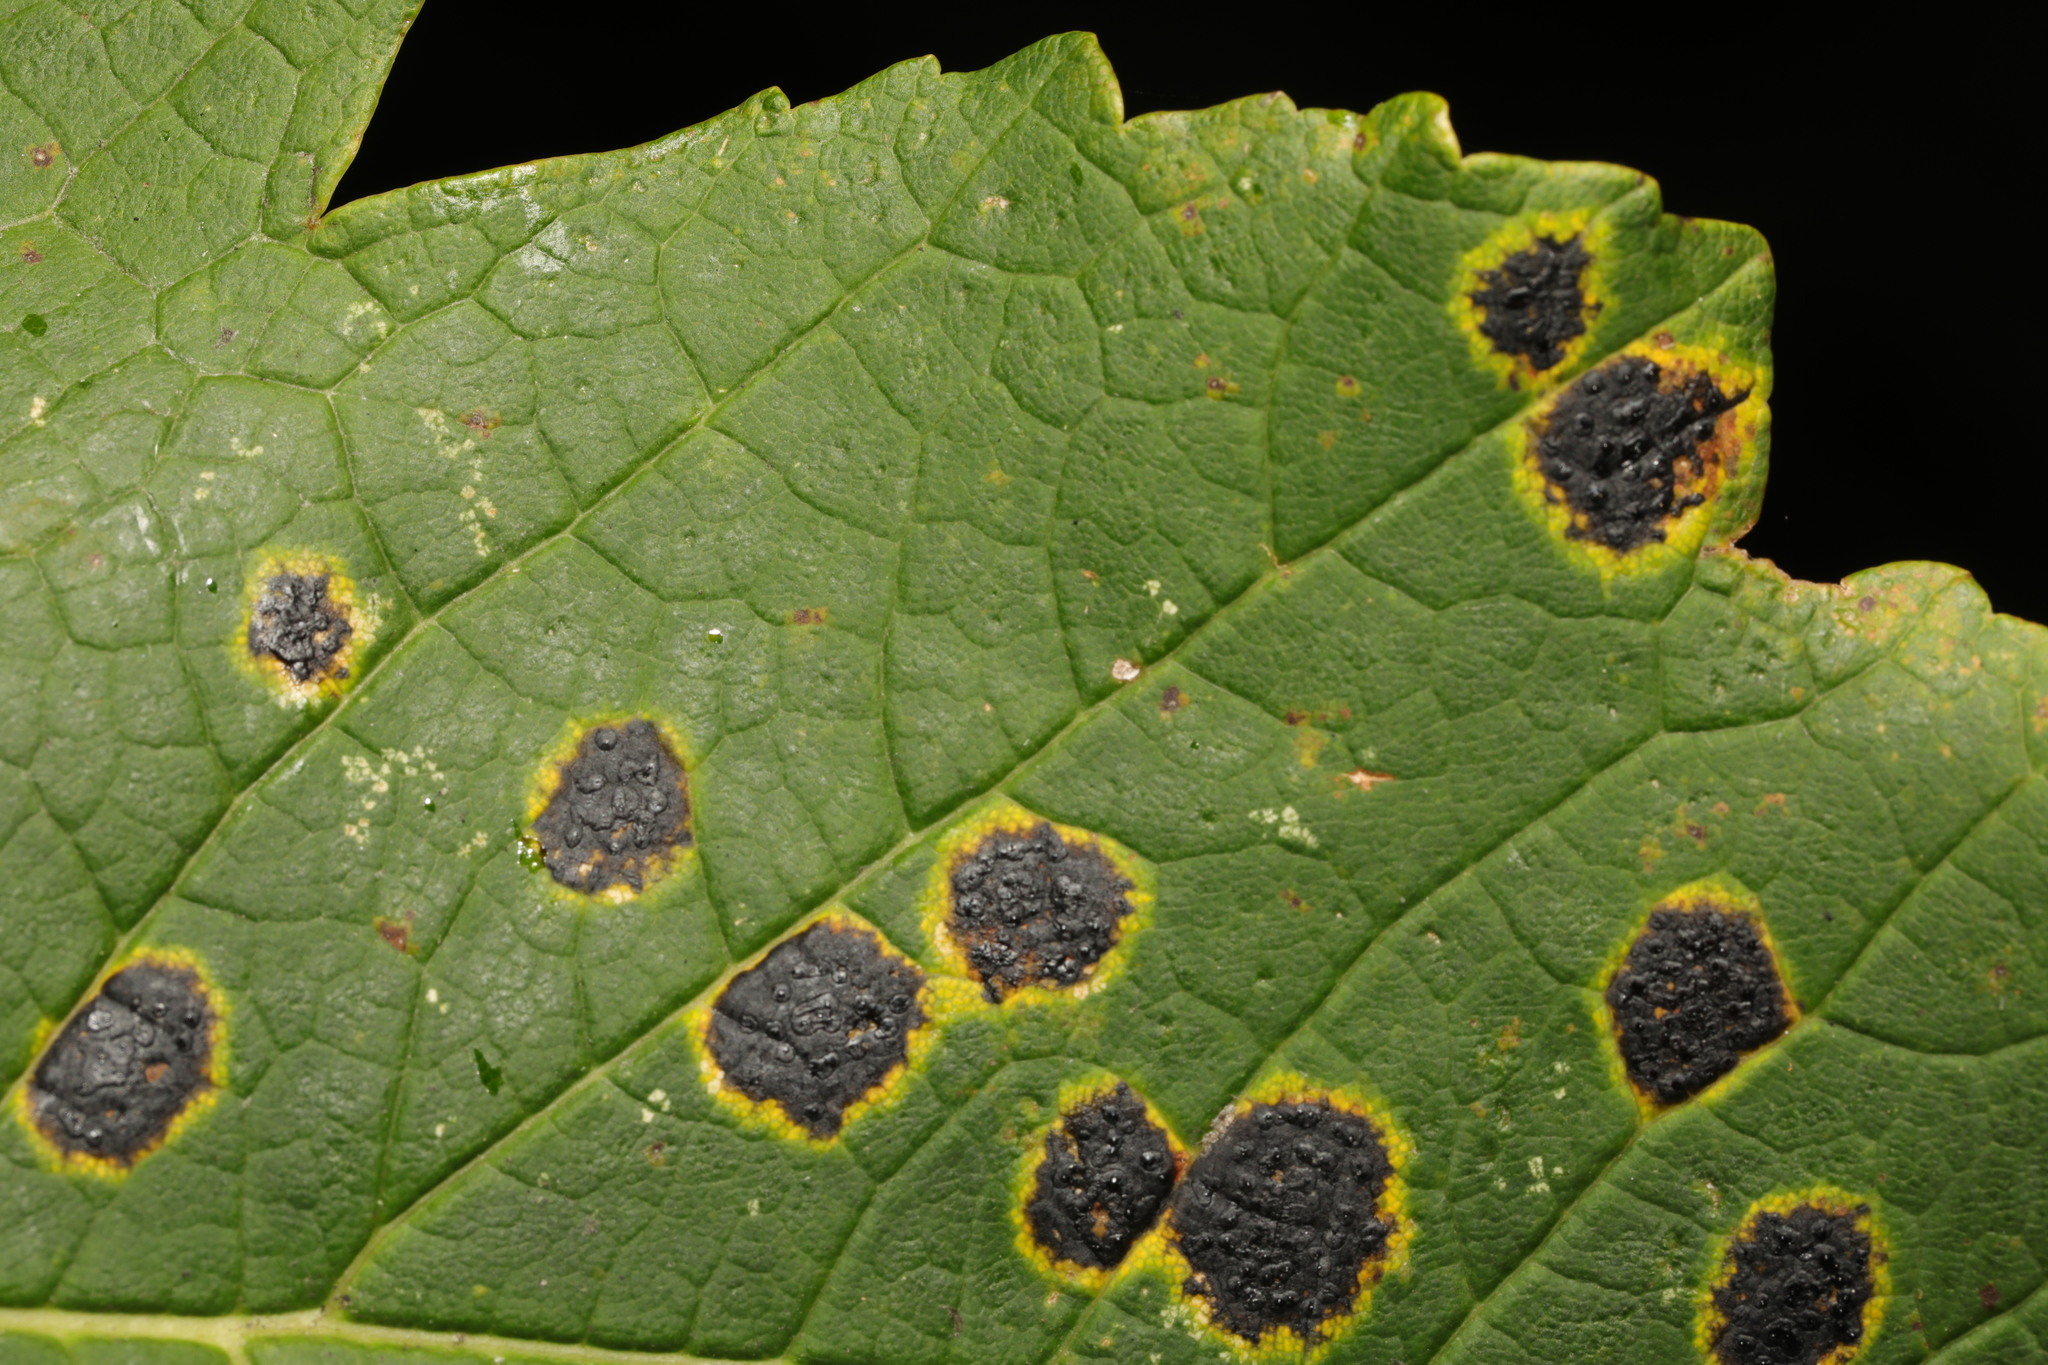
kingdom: Fungi
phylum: Ascomycota
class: Leotiomycetes
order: Rhytismatales
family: Rhytismataceae
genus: Rhytisma
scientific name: Rhytisma acerinum
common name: European tar spot
